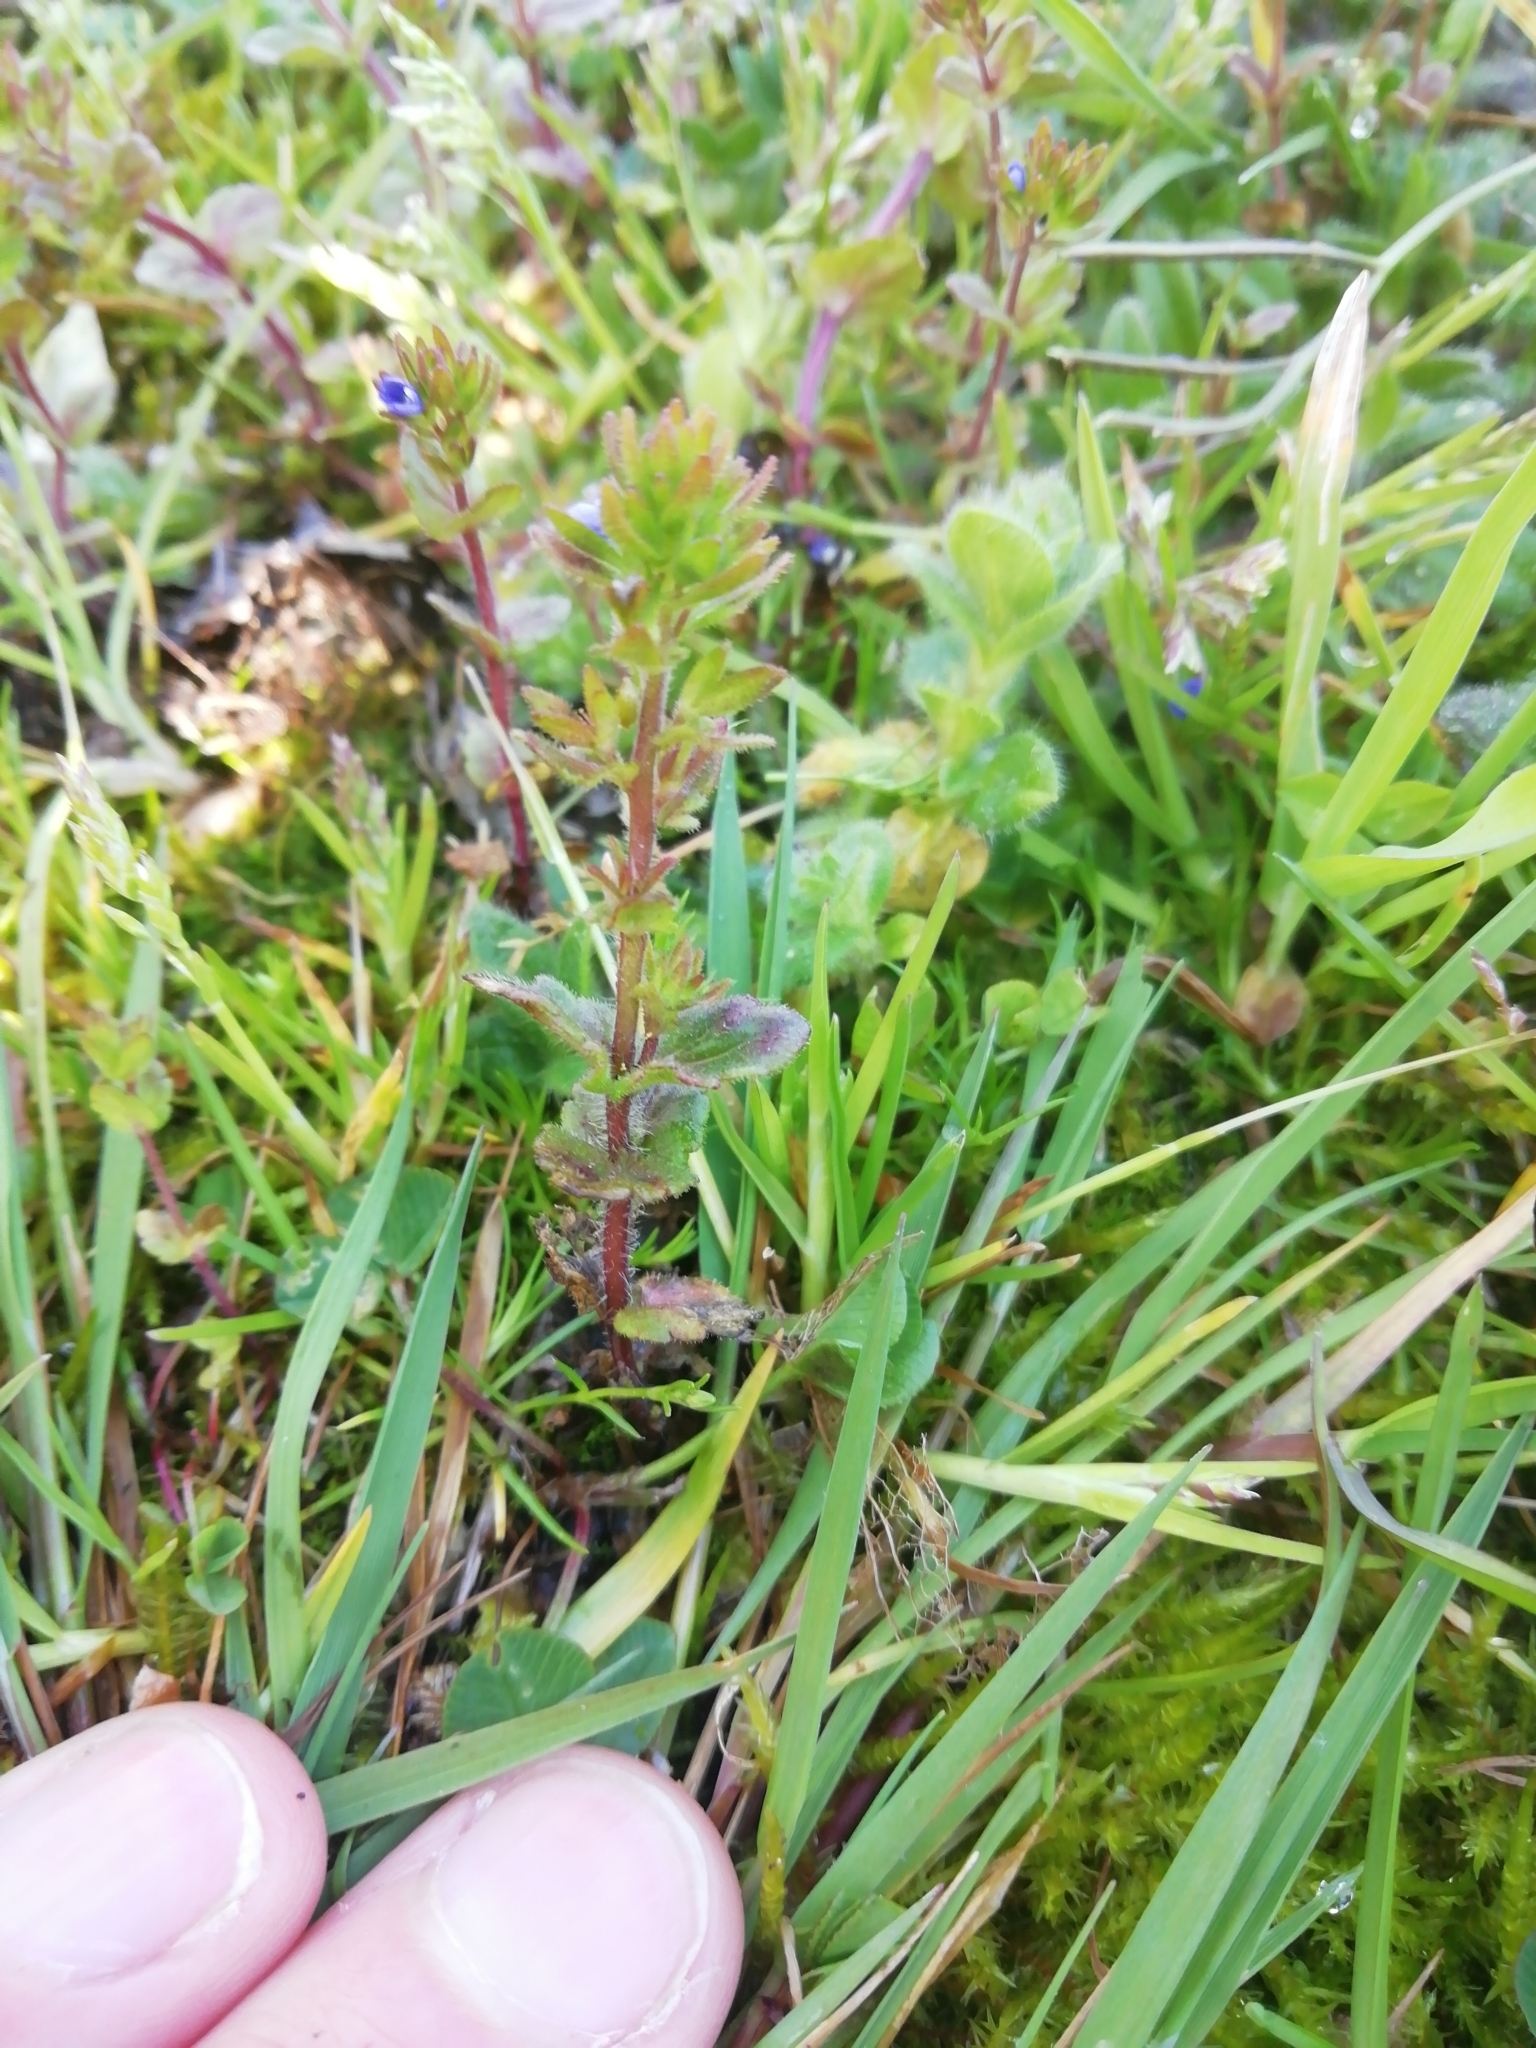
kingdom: Plantae
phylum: Tracheophyta
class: Magnoliopsida
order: Lamiales
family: Plantaginaceae
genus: Veronica
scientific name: Veronica arvensis
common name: Corn speedwell
